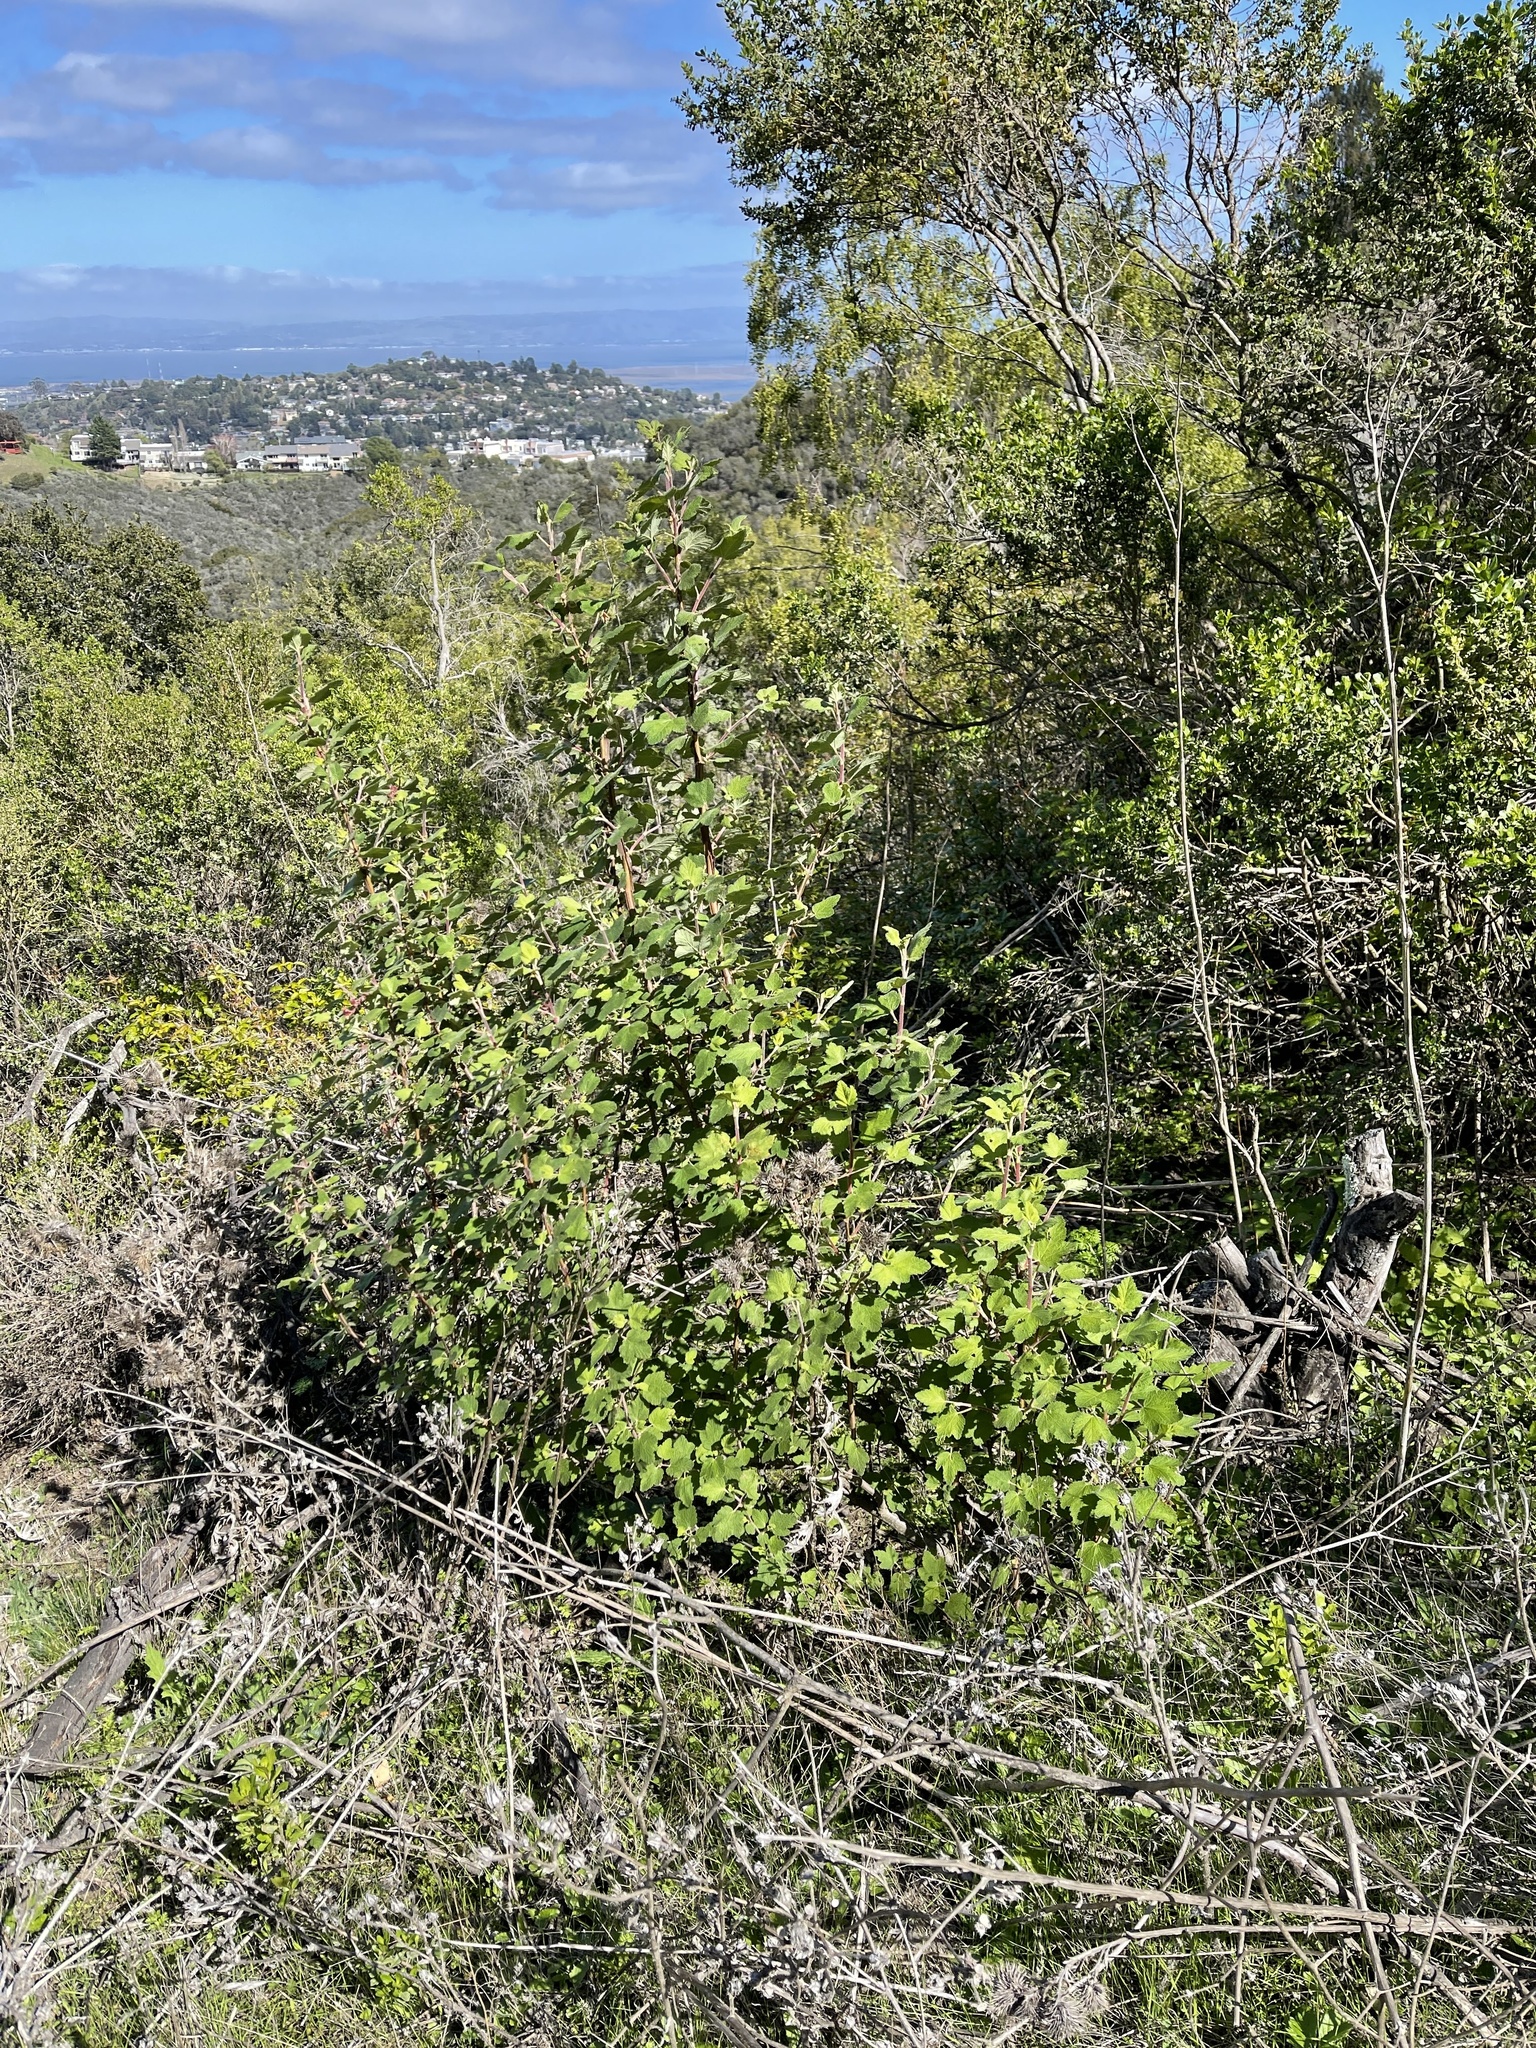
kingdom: Plantae
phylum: Tracheophyta
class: Magnoliopsida
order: Saxifragales
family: Grossulariaceae
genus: Ribes
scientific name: Ribes malvaceum
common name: Chaparral currant
